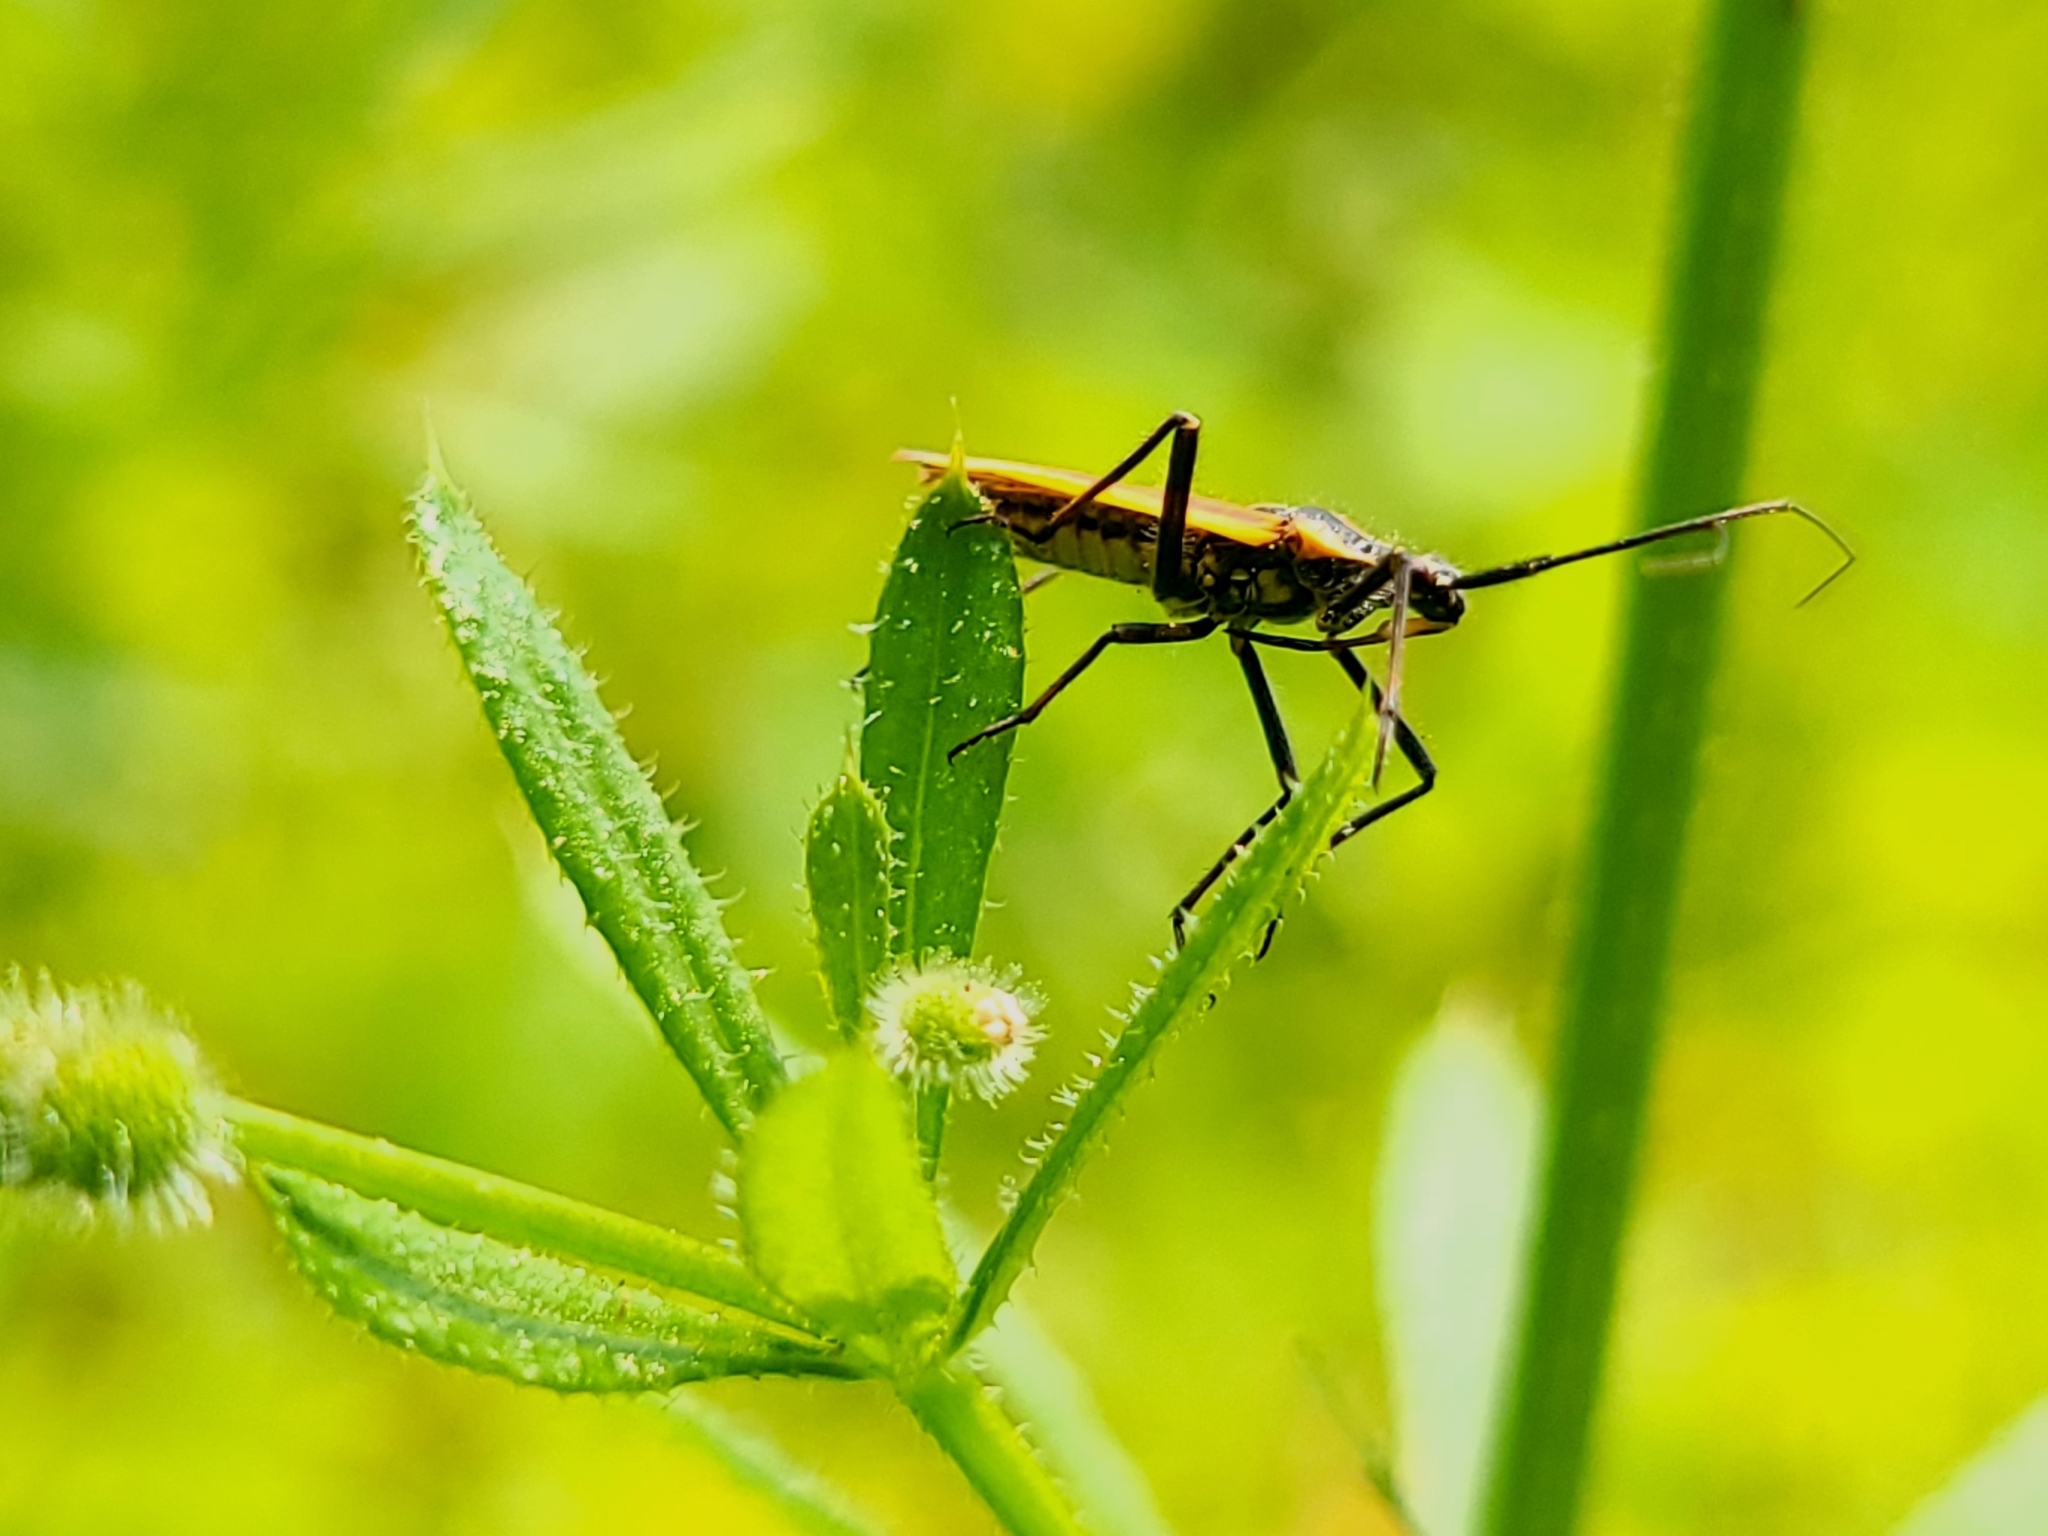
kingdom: Animalia
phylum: Arthropoda
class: Insecta
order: Hemiptera
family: Miridae
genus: Leptopterna
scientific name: Leptopterna dolabrata
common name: Meadow plant bug
